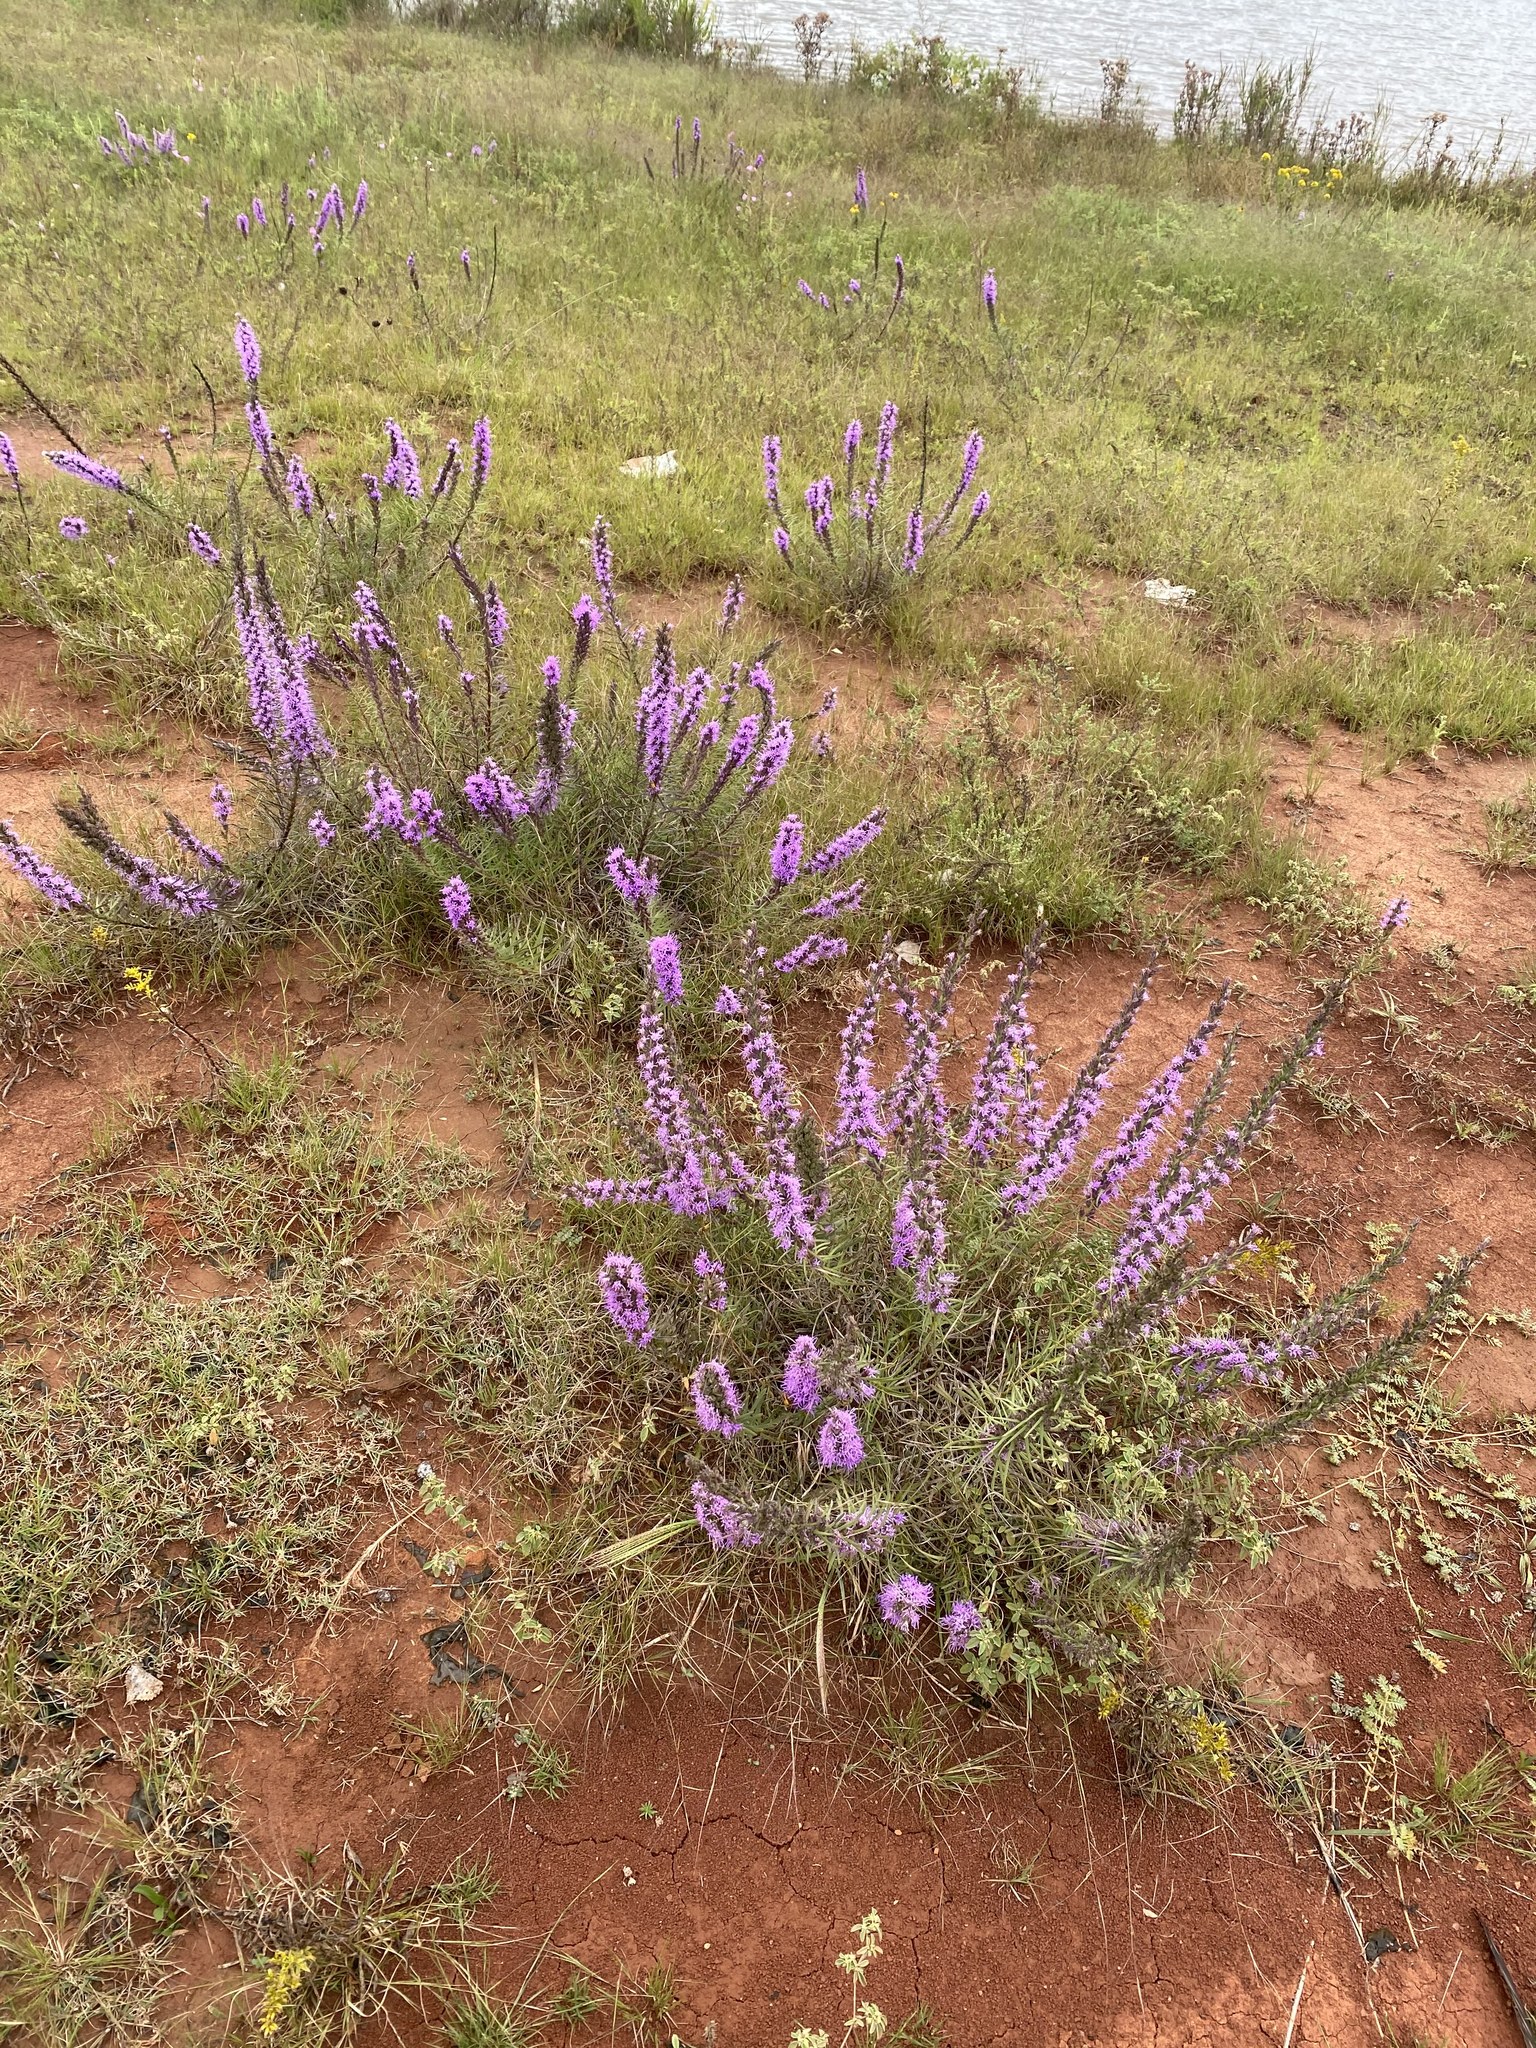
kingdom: Plantae
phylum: Tracheophyta
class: Magnoliopsida
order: Asterales
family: Asteraceae
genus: Liatris
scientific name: Liatris punctata
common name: Dotted gayfeather
